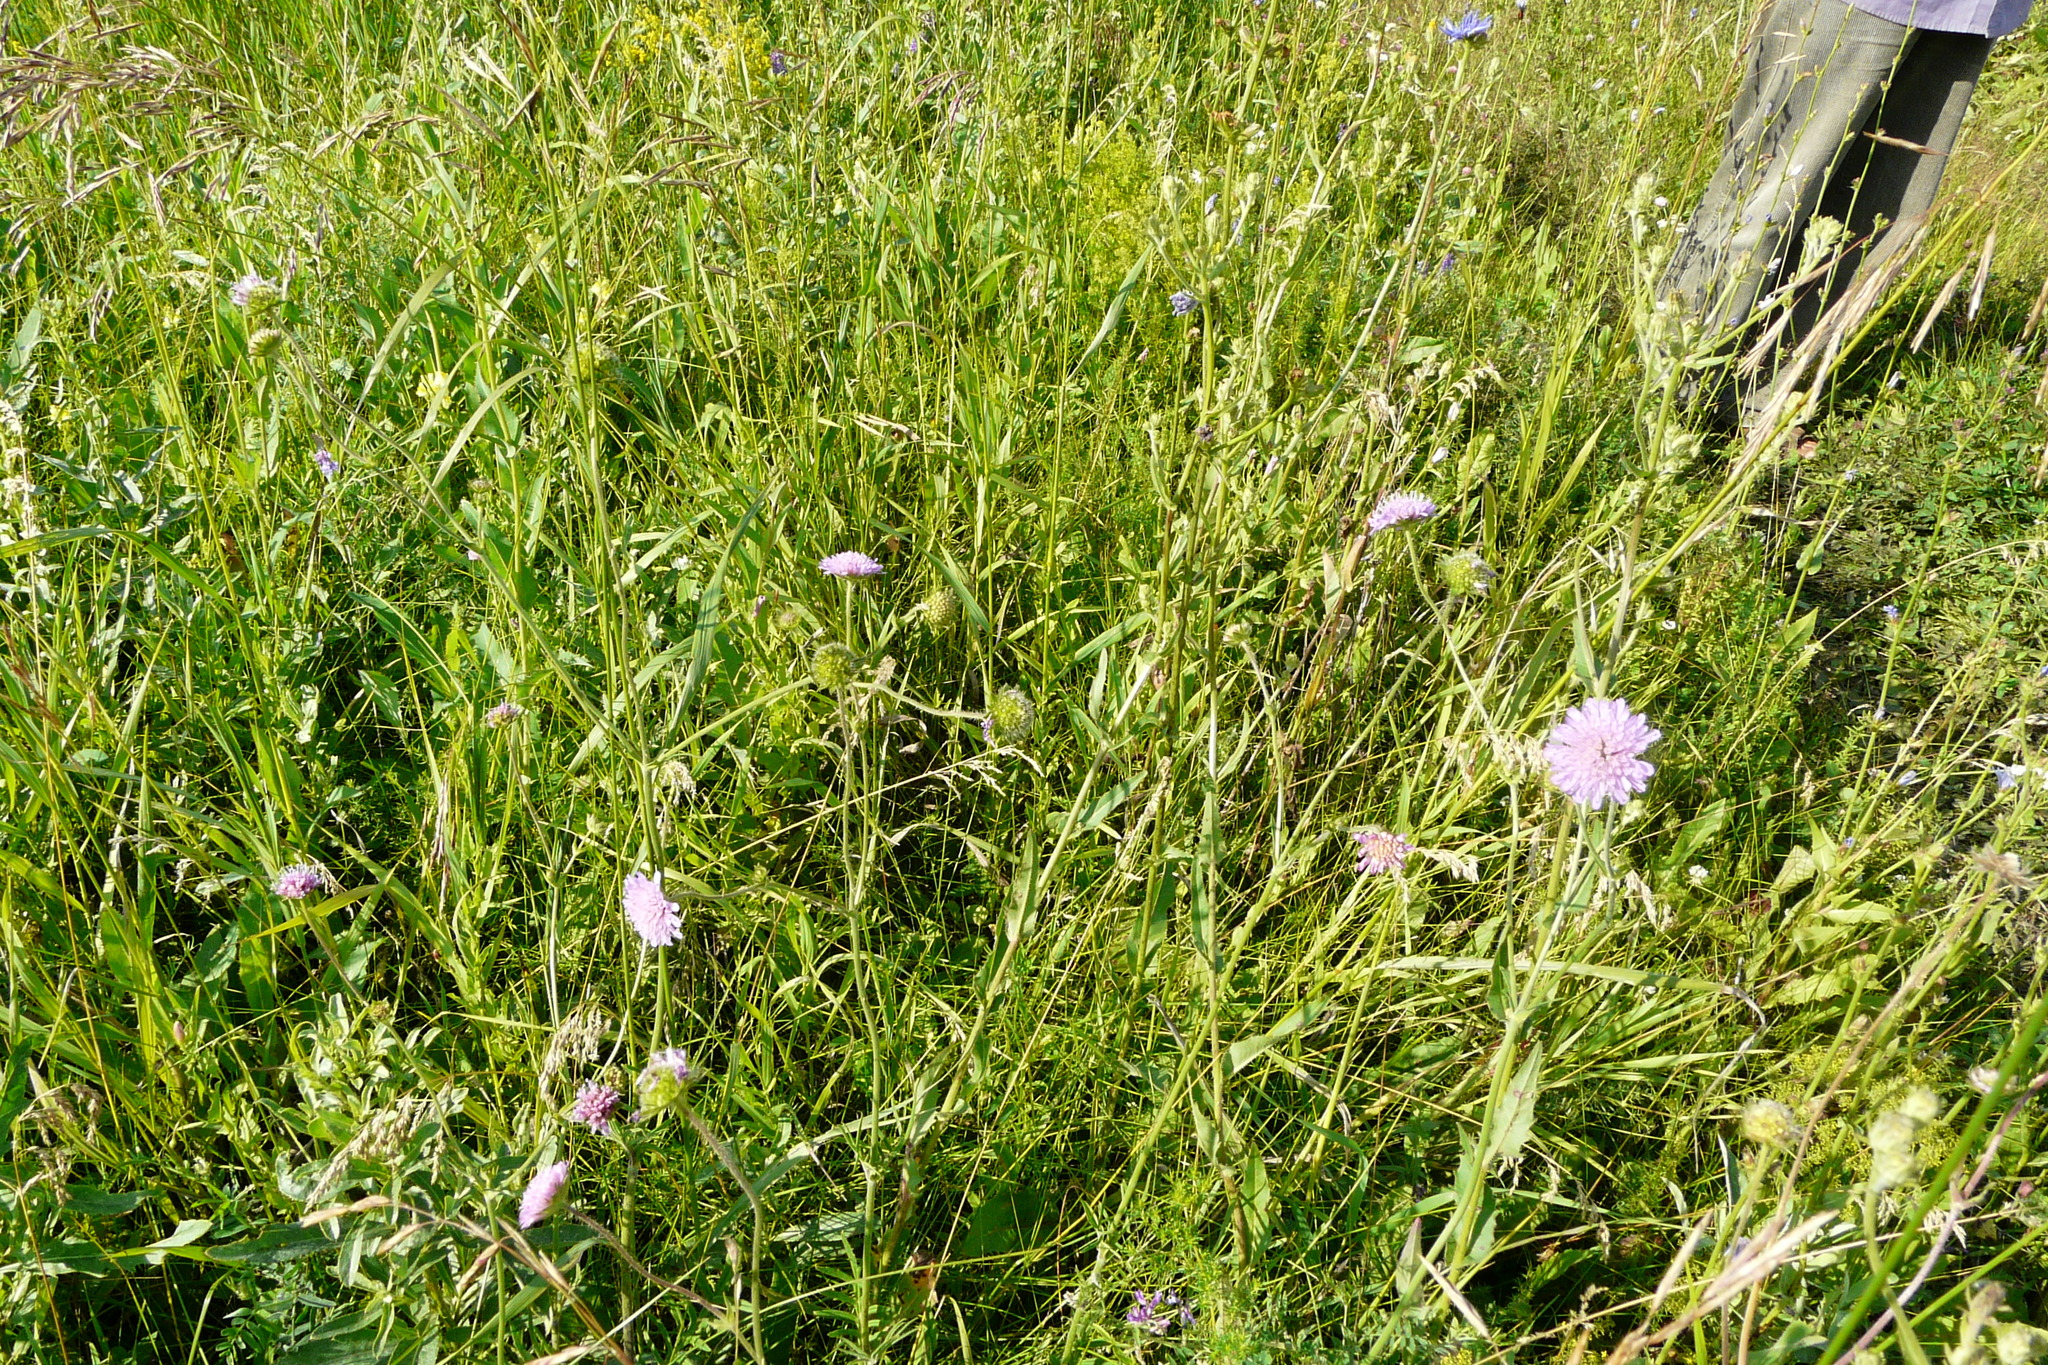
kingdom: Plantae
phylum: Tracheophyta
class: Magnoliopsida
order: Dipsacales
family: Caprifoliaceae
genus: Knautia
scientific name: Knautia arvensis
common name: Field scabiosa
